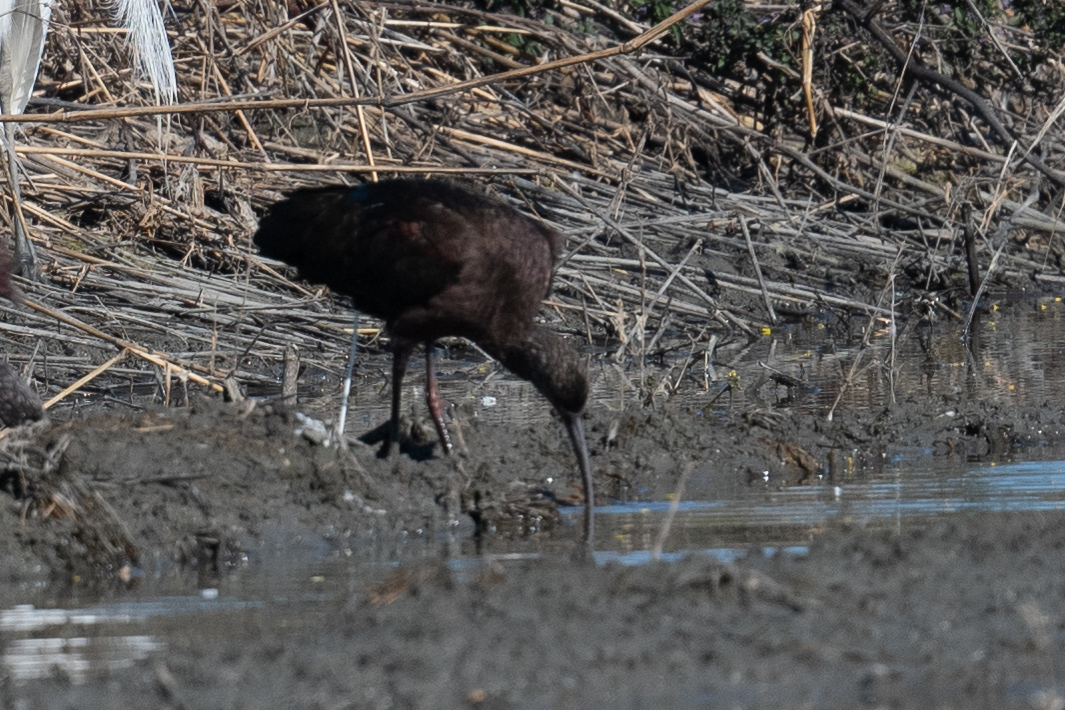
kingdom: Animalia
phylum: Chordata
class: Aves
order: Pelecaniformes
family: Threskiornithidae
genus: Plegadis
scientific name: Plegadis chihi
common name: White-faced ibis
